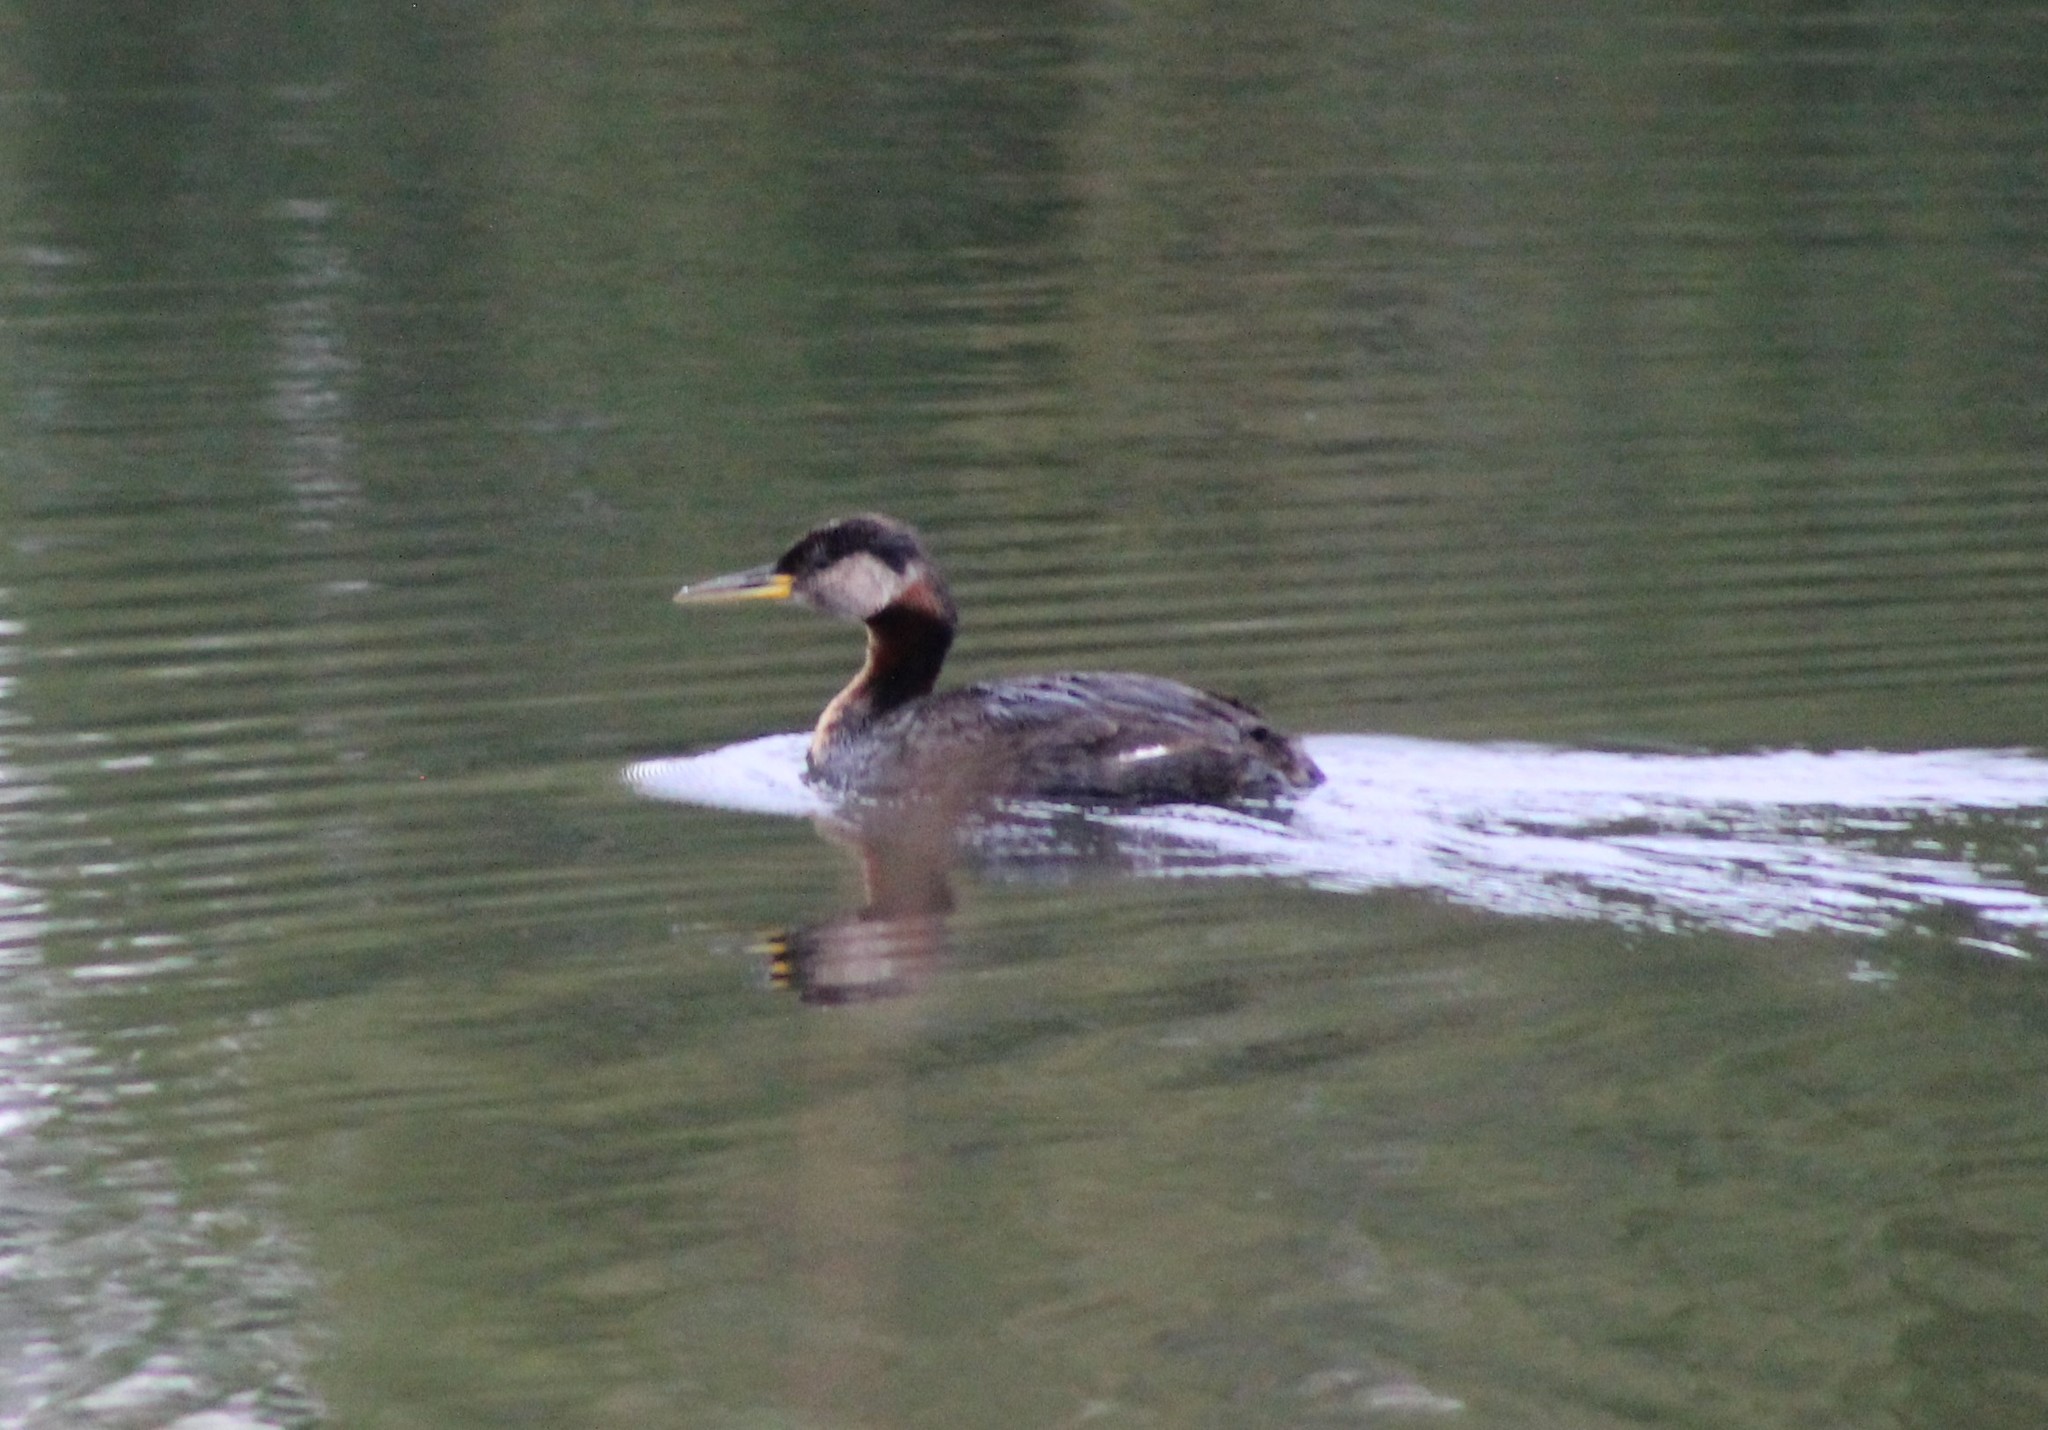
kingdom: Animalia
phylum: Chordata
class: Aves
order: Podicipediformes
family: Podicipedidae
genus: Podiceps
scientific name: Podiceps grisegena
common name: Red-necked grebe
